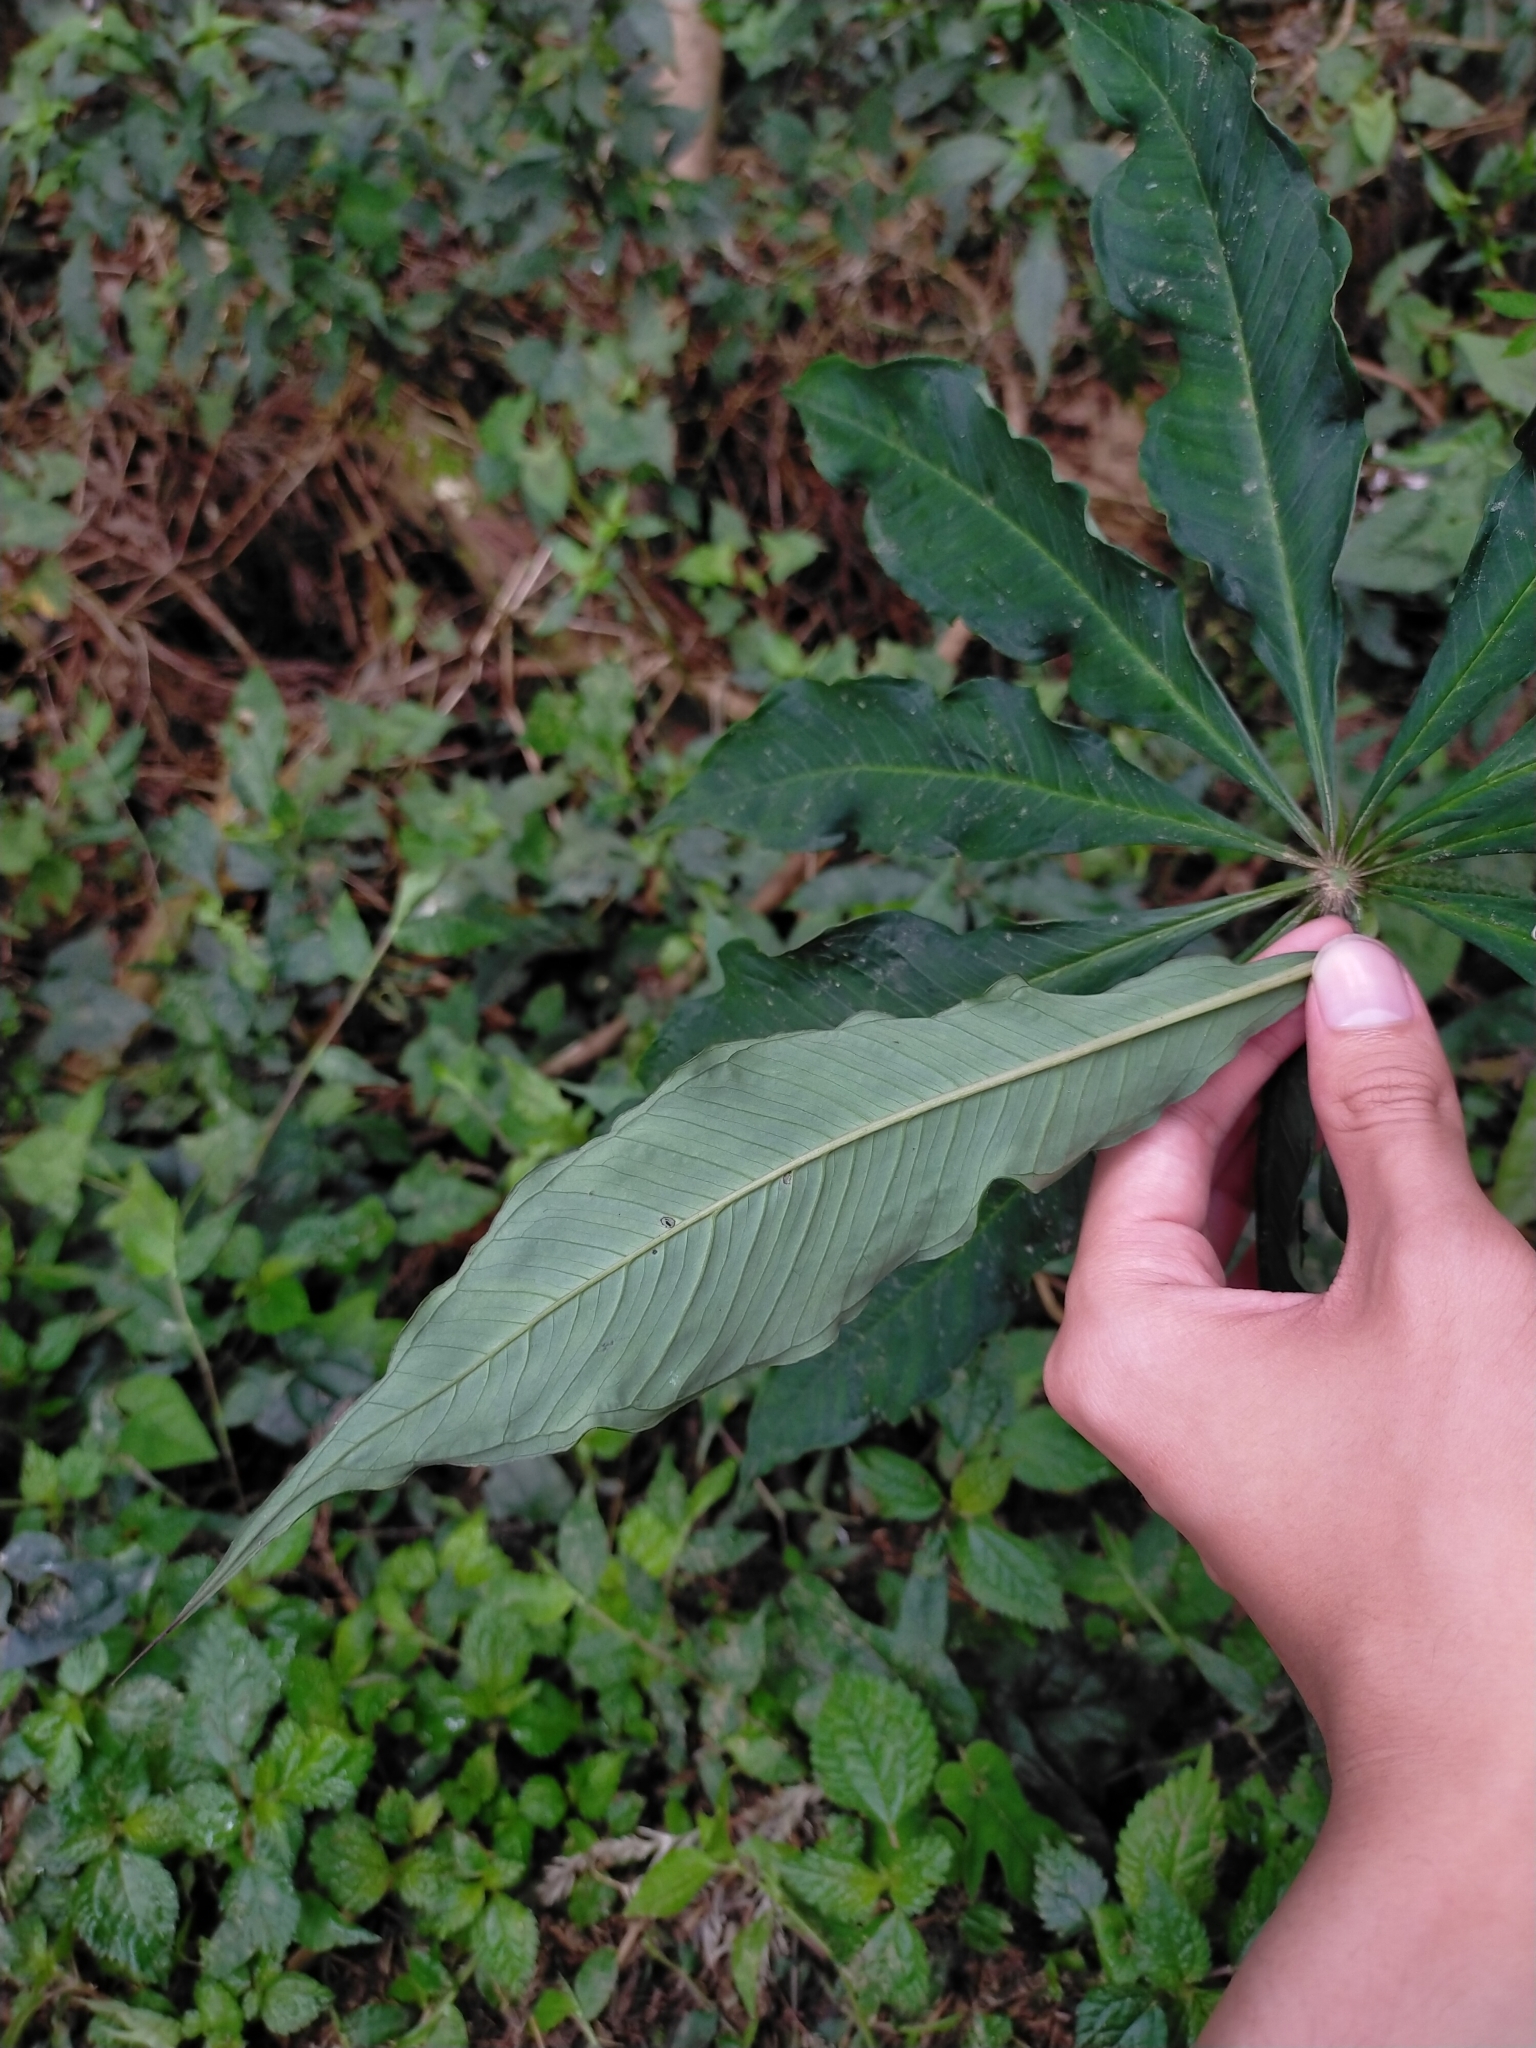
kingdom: Plantae
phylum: Tracheophyta
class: Liliopsida
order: Alismatales
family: Araceae
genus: Arisaema
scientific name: Arisaema formosanum
